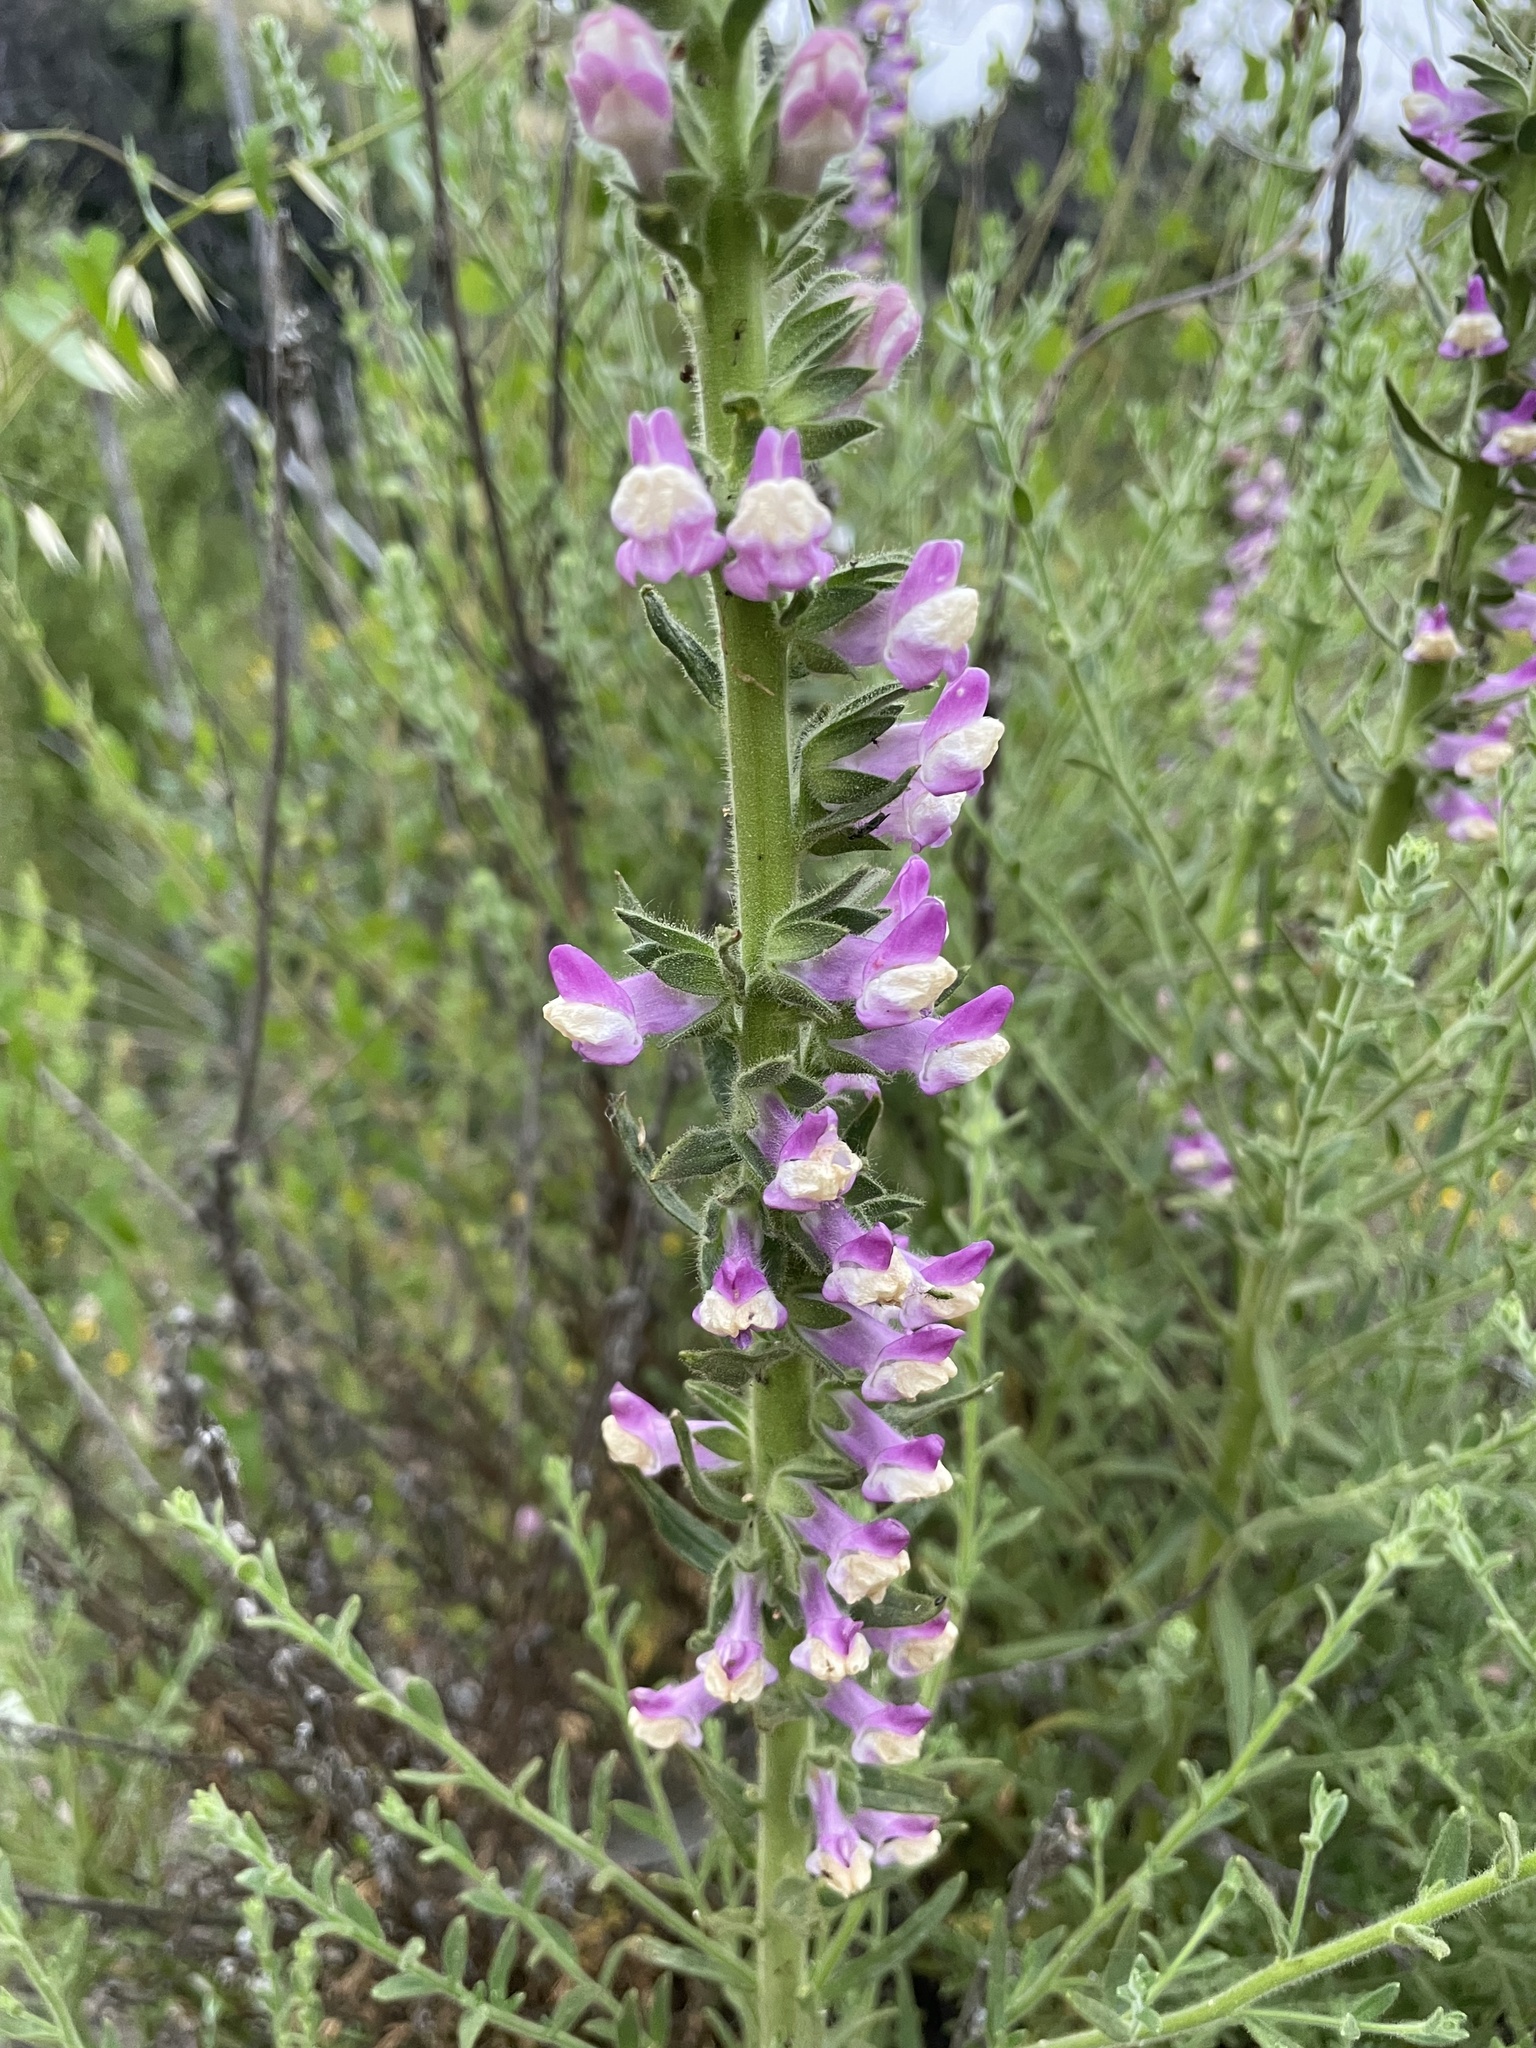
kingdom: Plantae
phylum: Tracheophyta
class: Magnoliopsida
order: Lamiales
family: Plantaginaceae
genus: Sairocarpus
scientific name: Sairocarpus multiflorus
